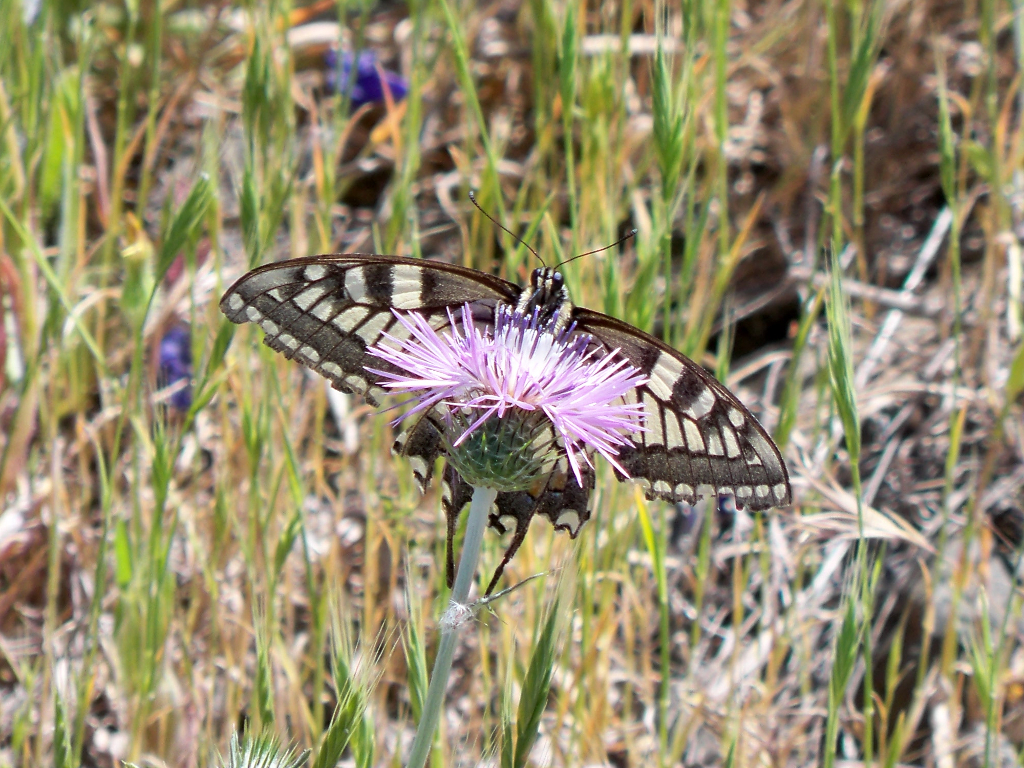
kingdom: Animalia
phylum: Arthropoda
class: Insecta
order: Lepidoptera
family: Papilionidae
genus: Papilio
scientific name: Papilio machaon
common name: Swallowtail
